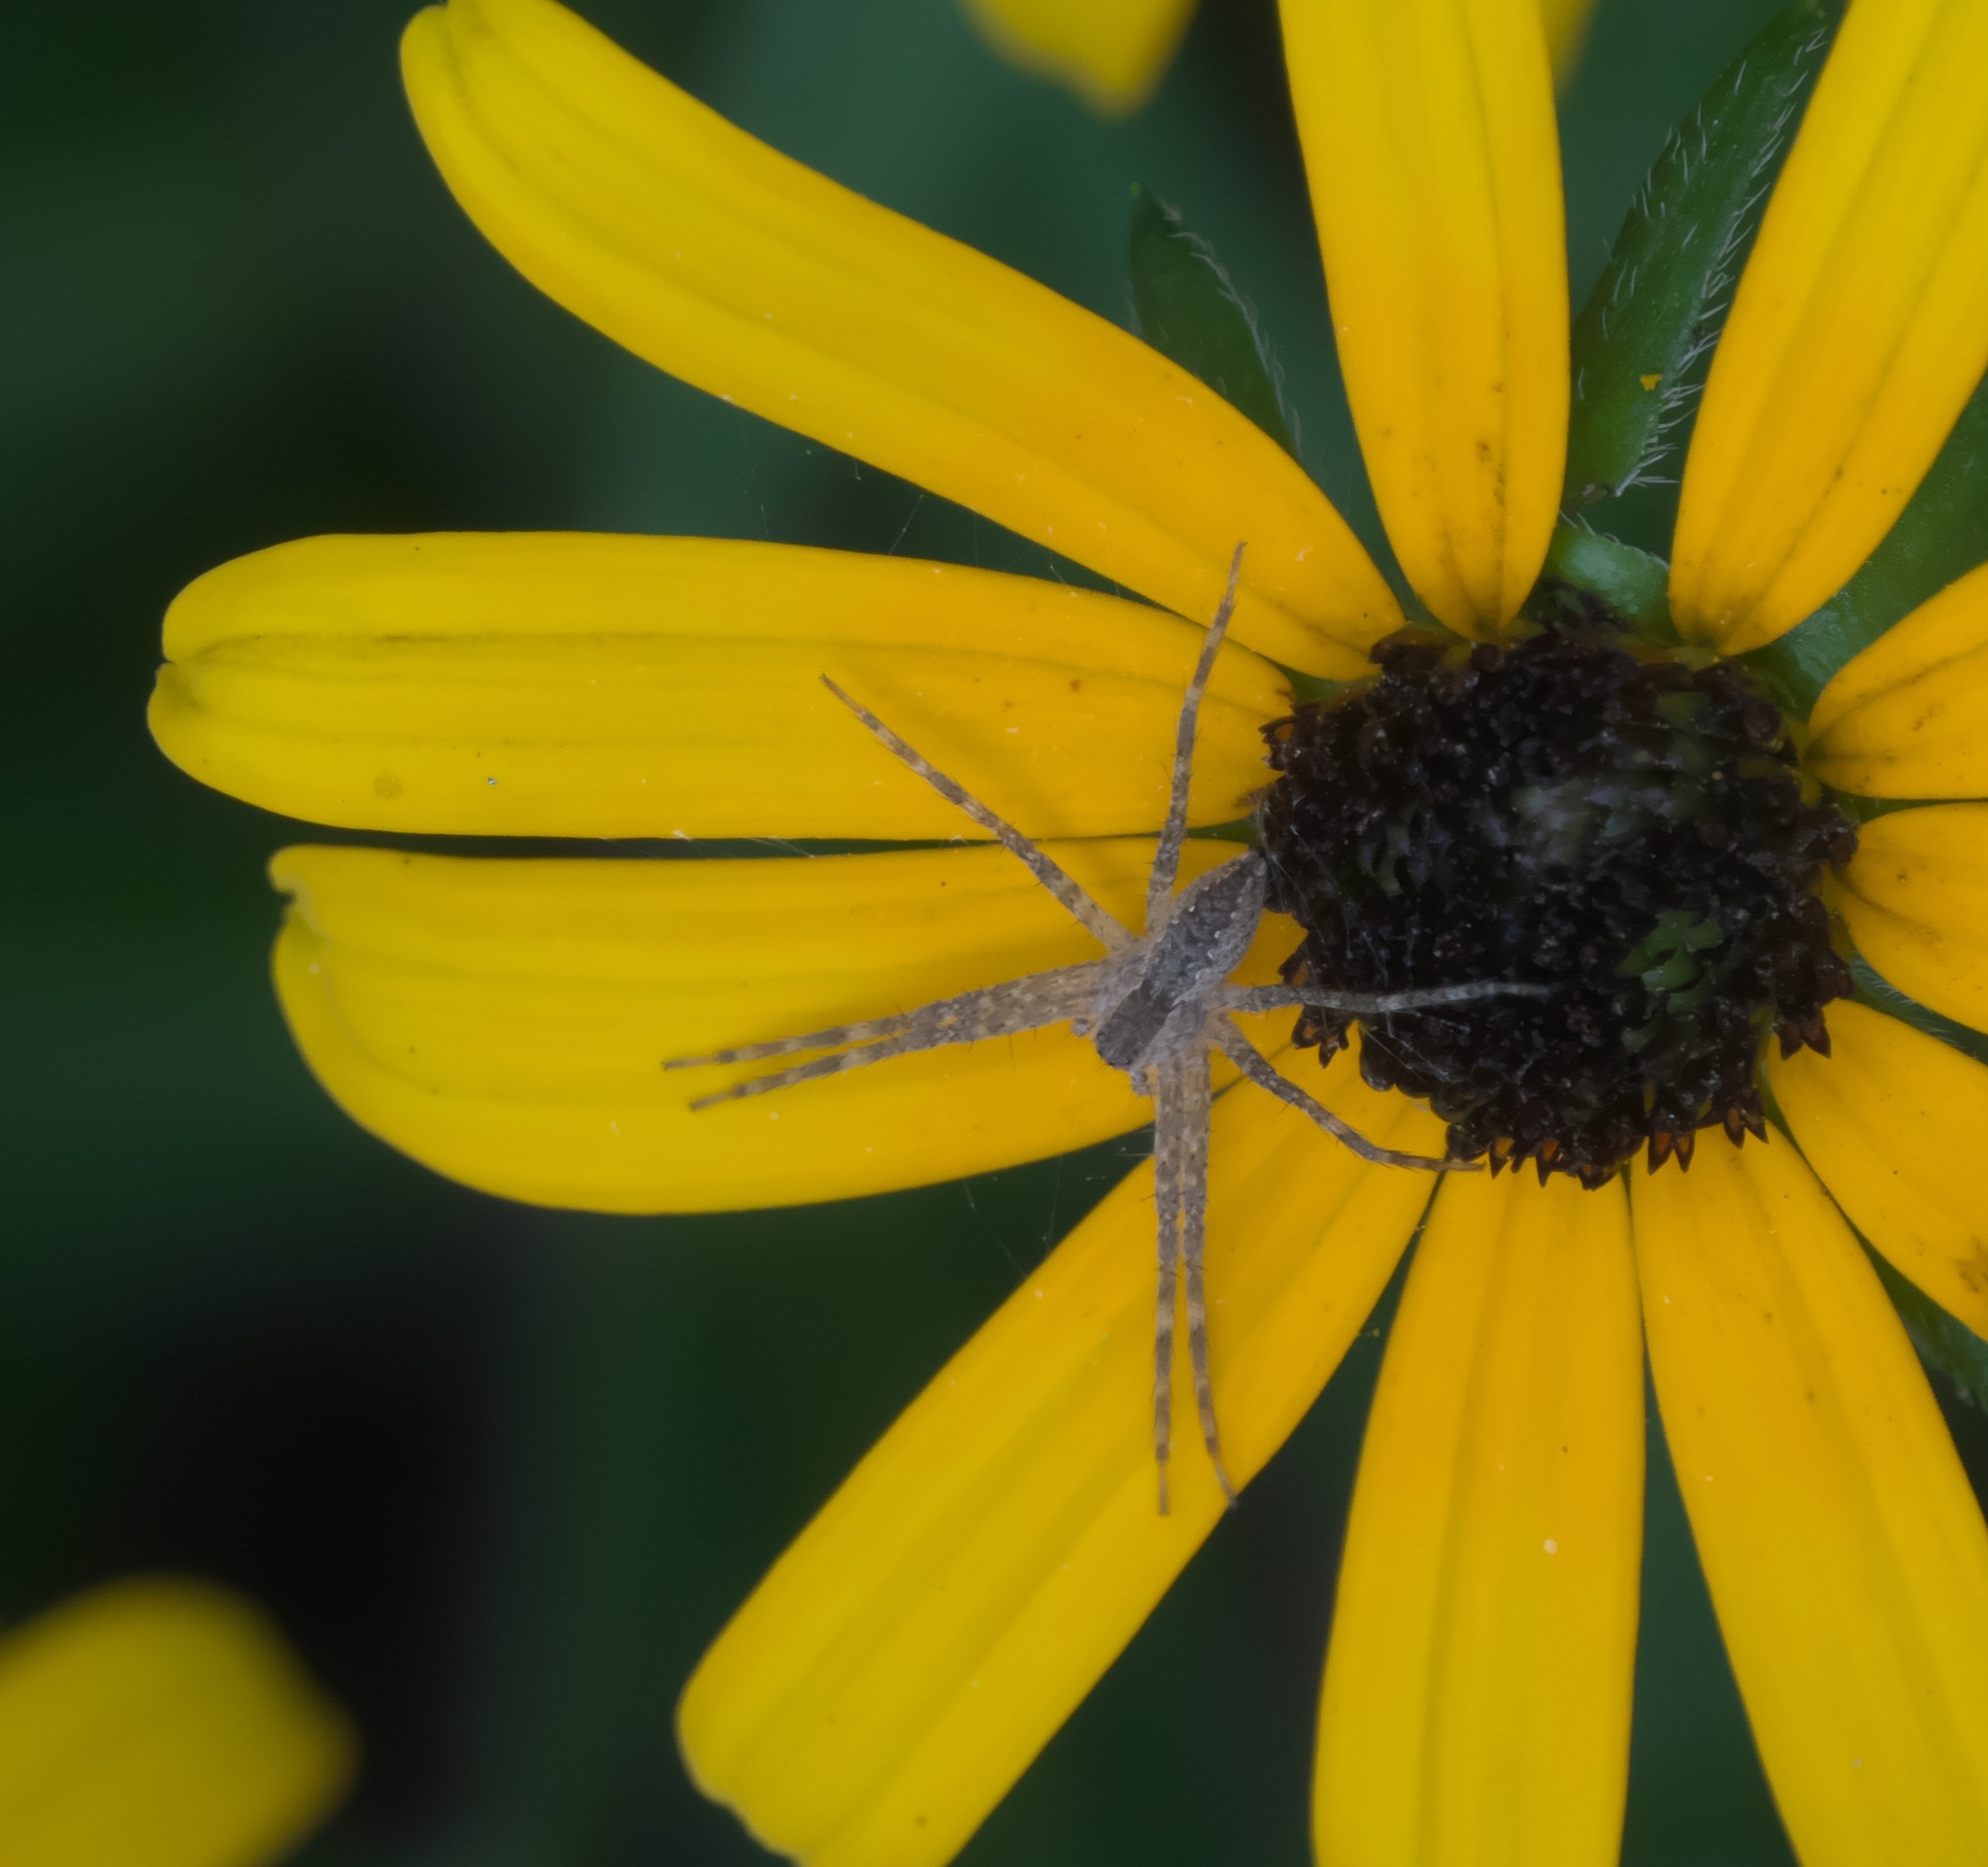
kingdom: Animalia
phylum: Arthropoda
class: Arachnida
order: Araneae
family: Pisauridae
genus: Pisaurina
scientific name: Pisaurina mira
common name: American nursery web spider
